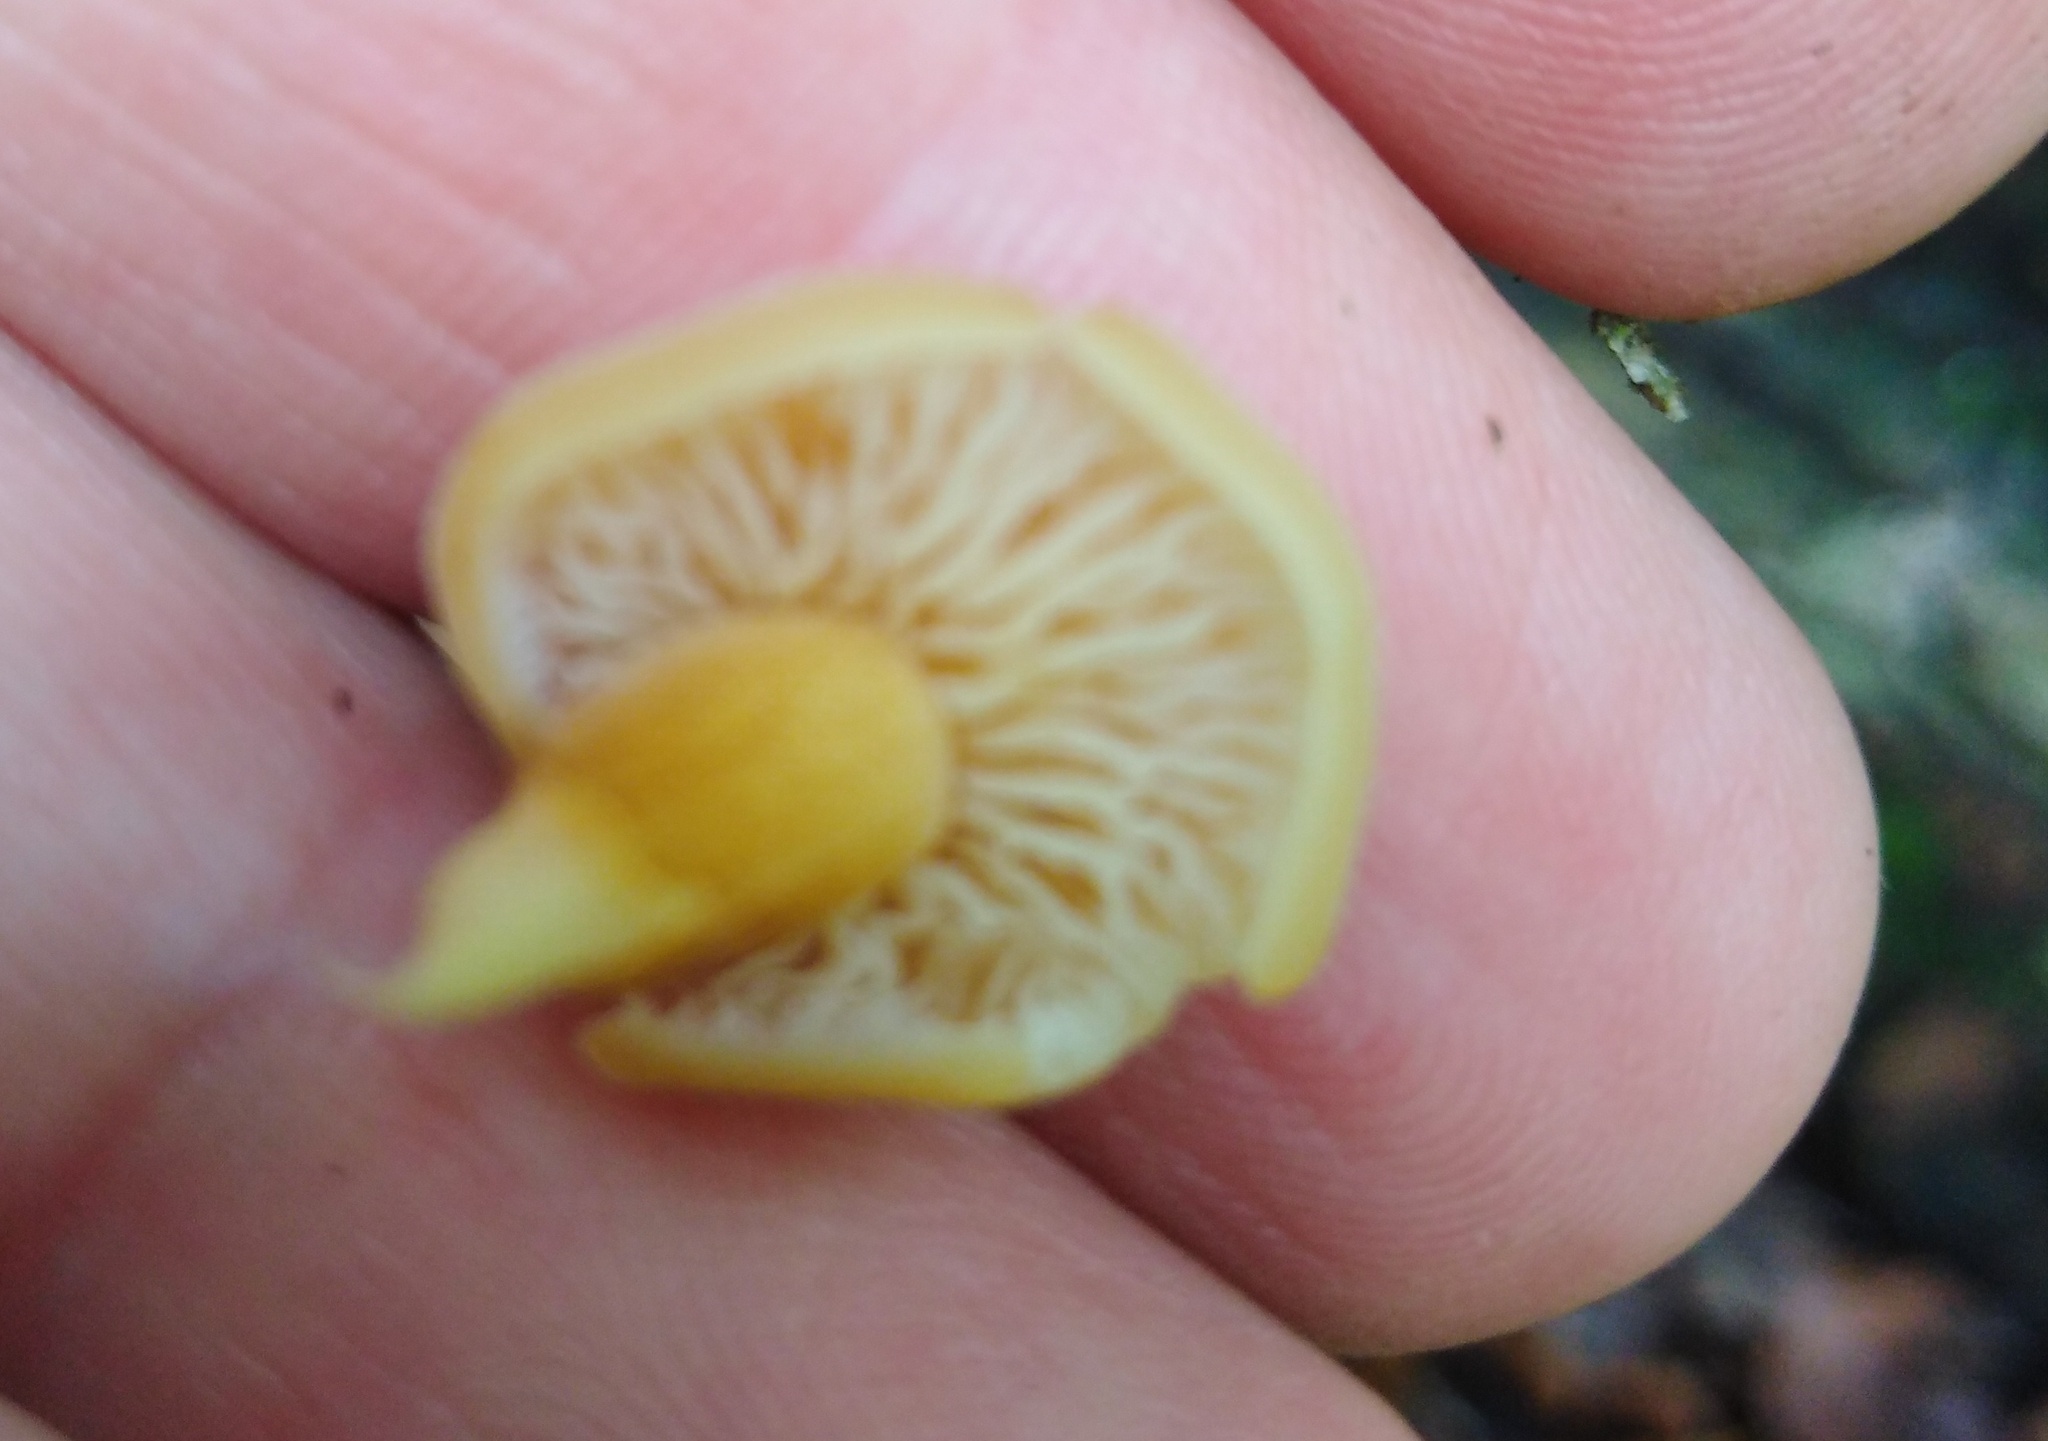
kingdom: Fungi
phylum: Basidiomycota
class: Agaricomycetes
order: Agaricales
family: Physalacriaceae
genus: Flammulina
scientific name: Flammulina
